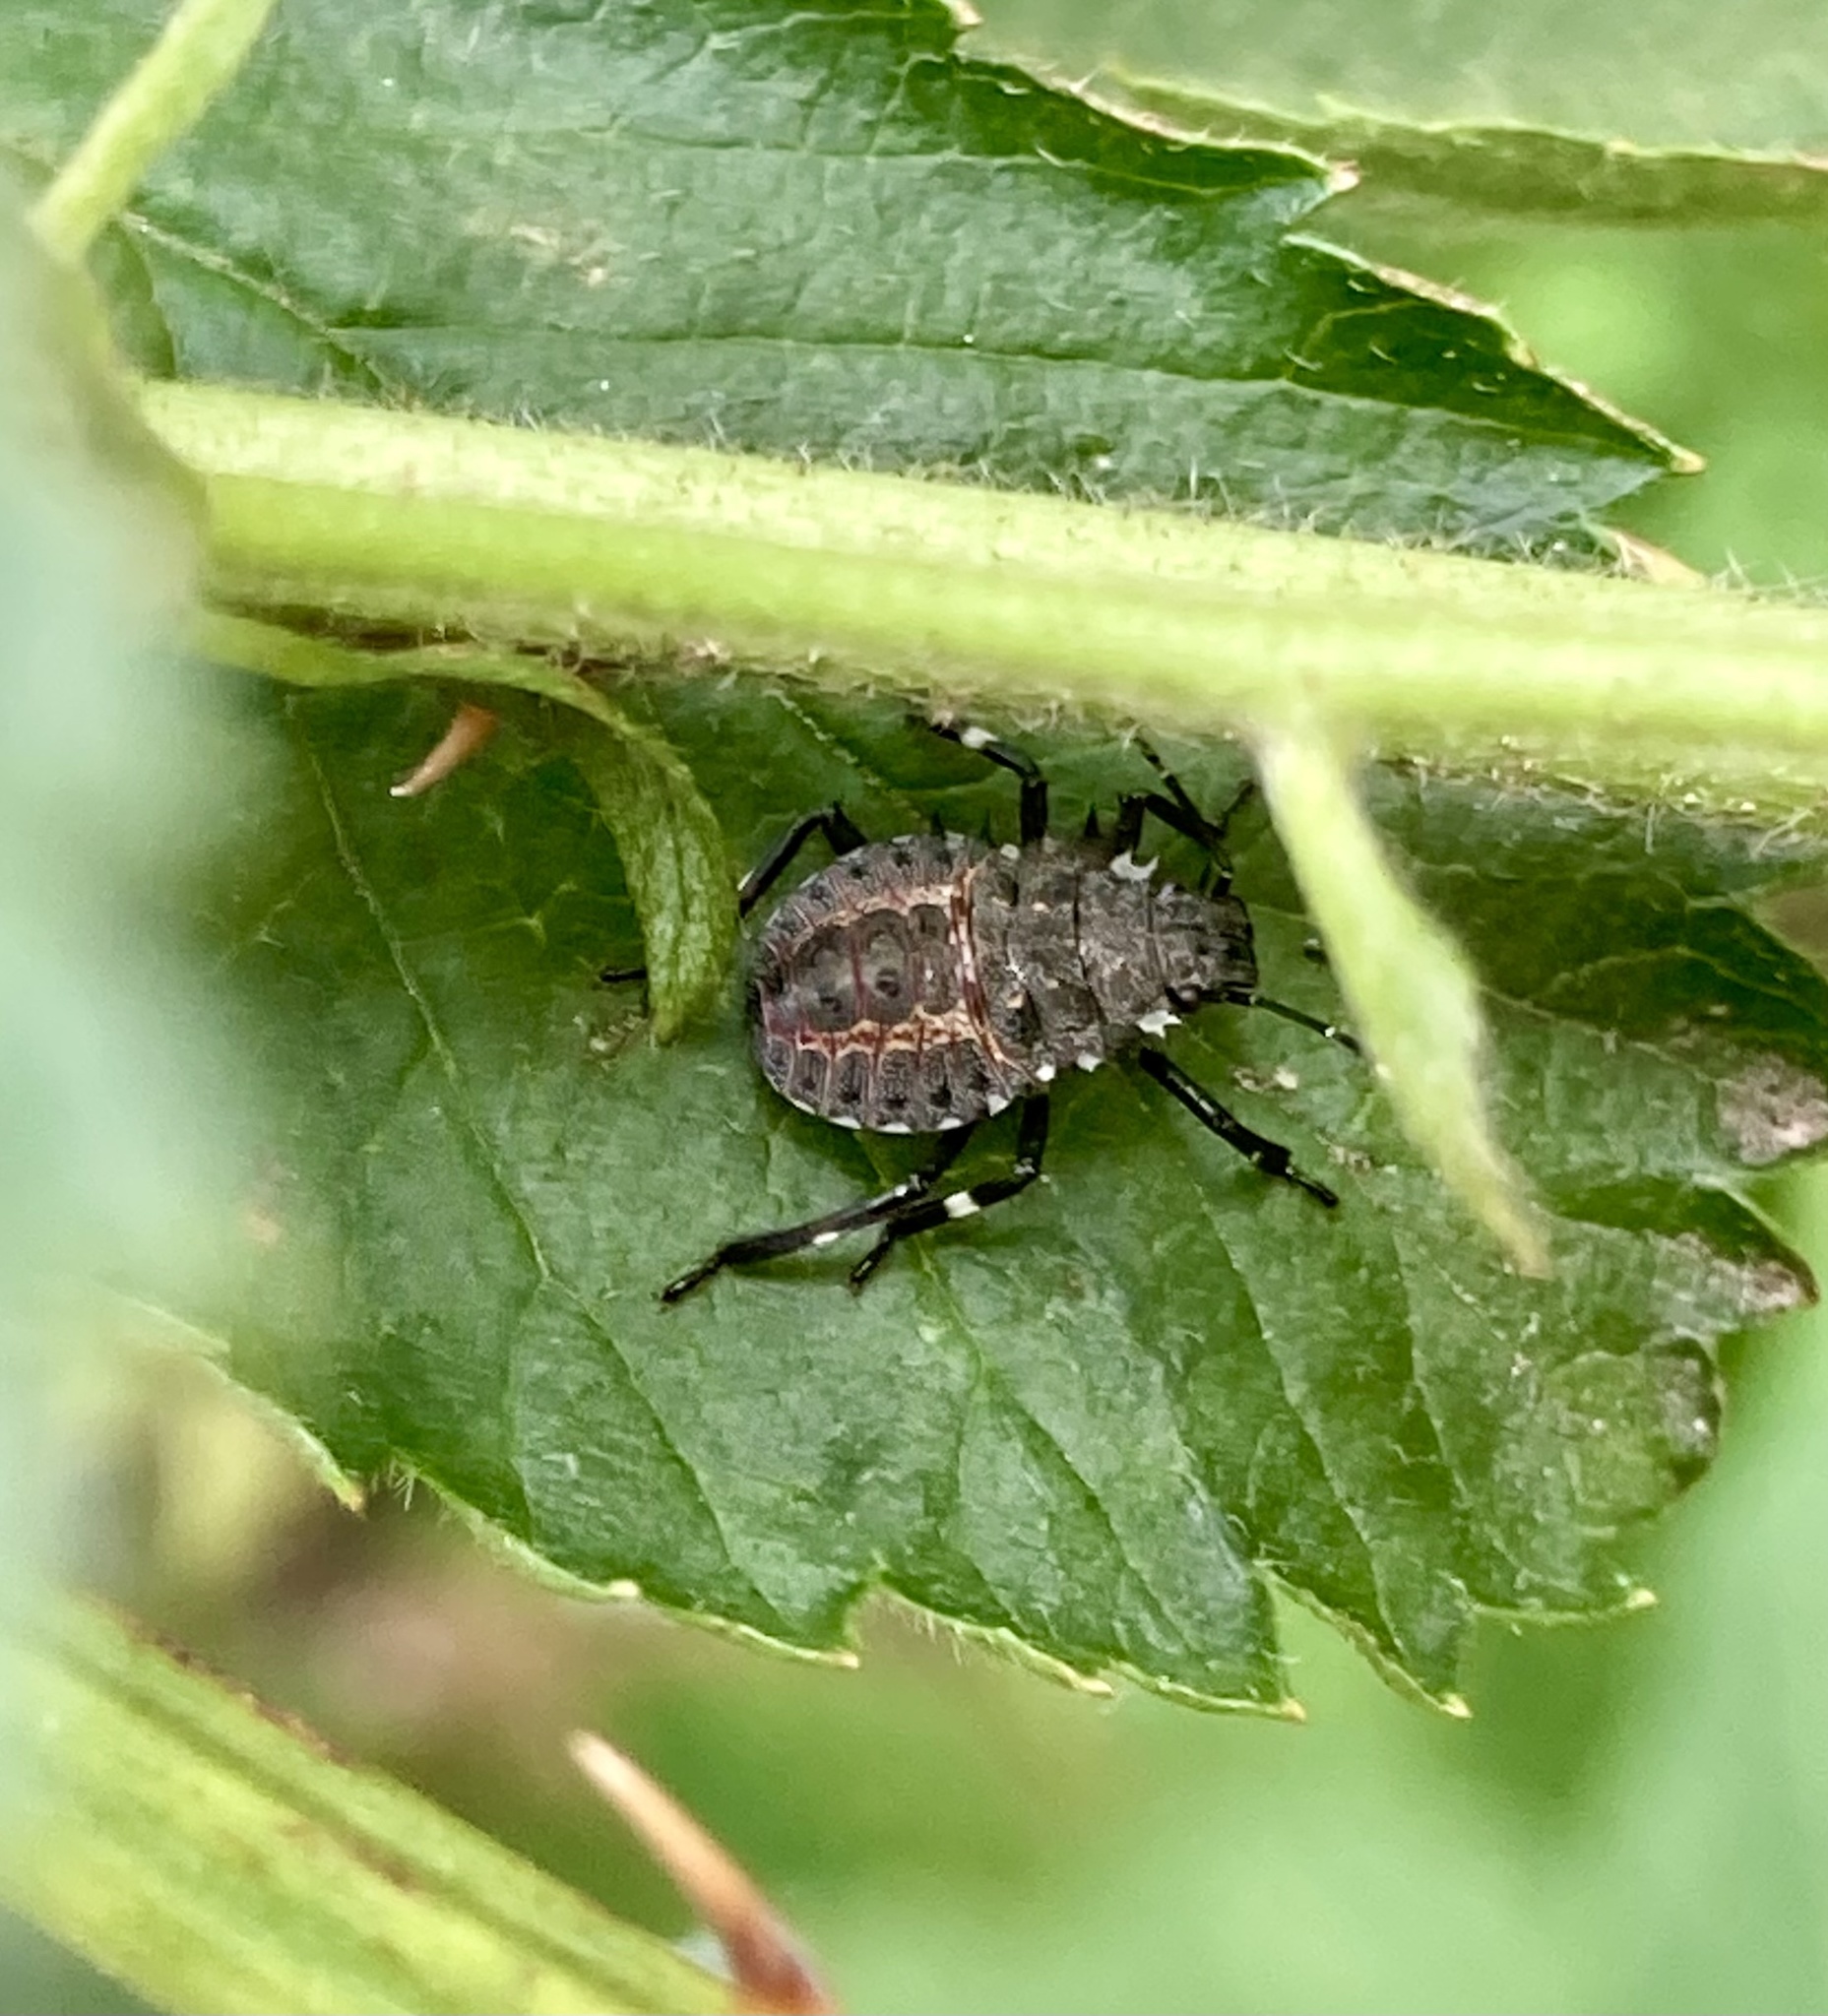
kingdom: Animalia
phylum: Arthropoda
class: Insecta
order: Hemiptera
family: Pentatomidae
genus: Halyomorpha
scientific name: Halyomorpha halys
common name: Brown marmorated stink bug
